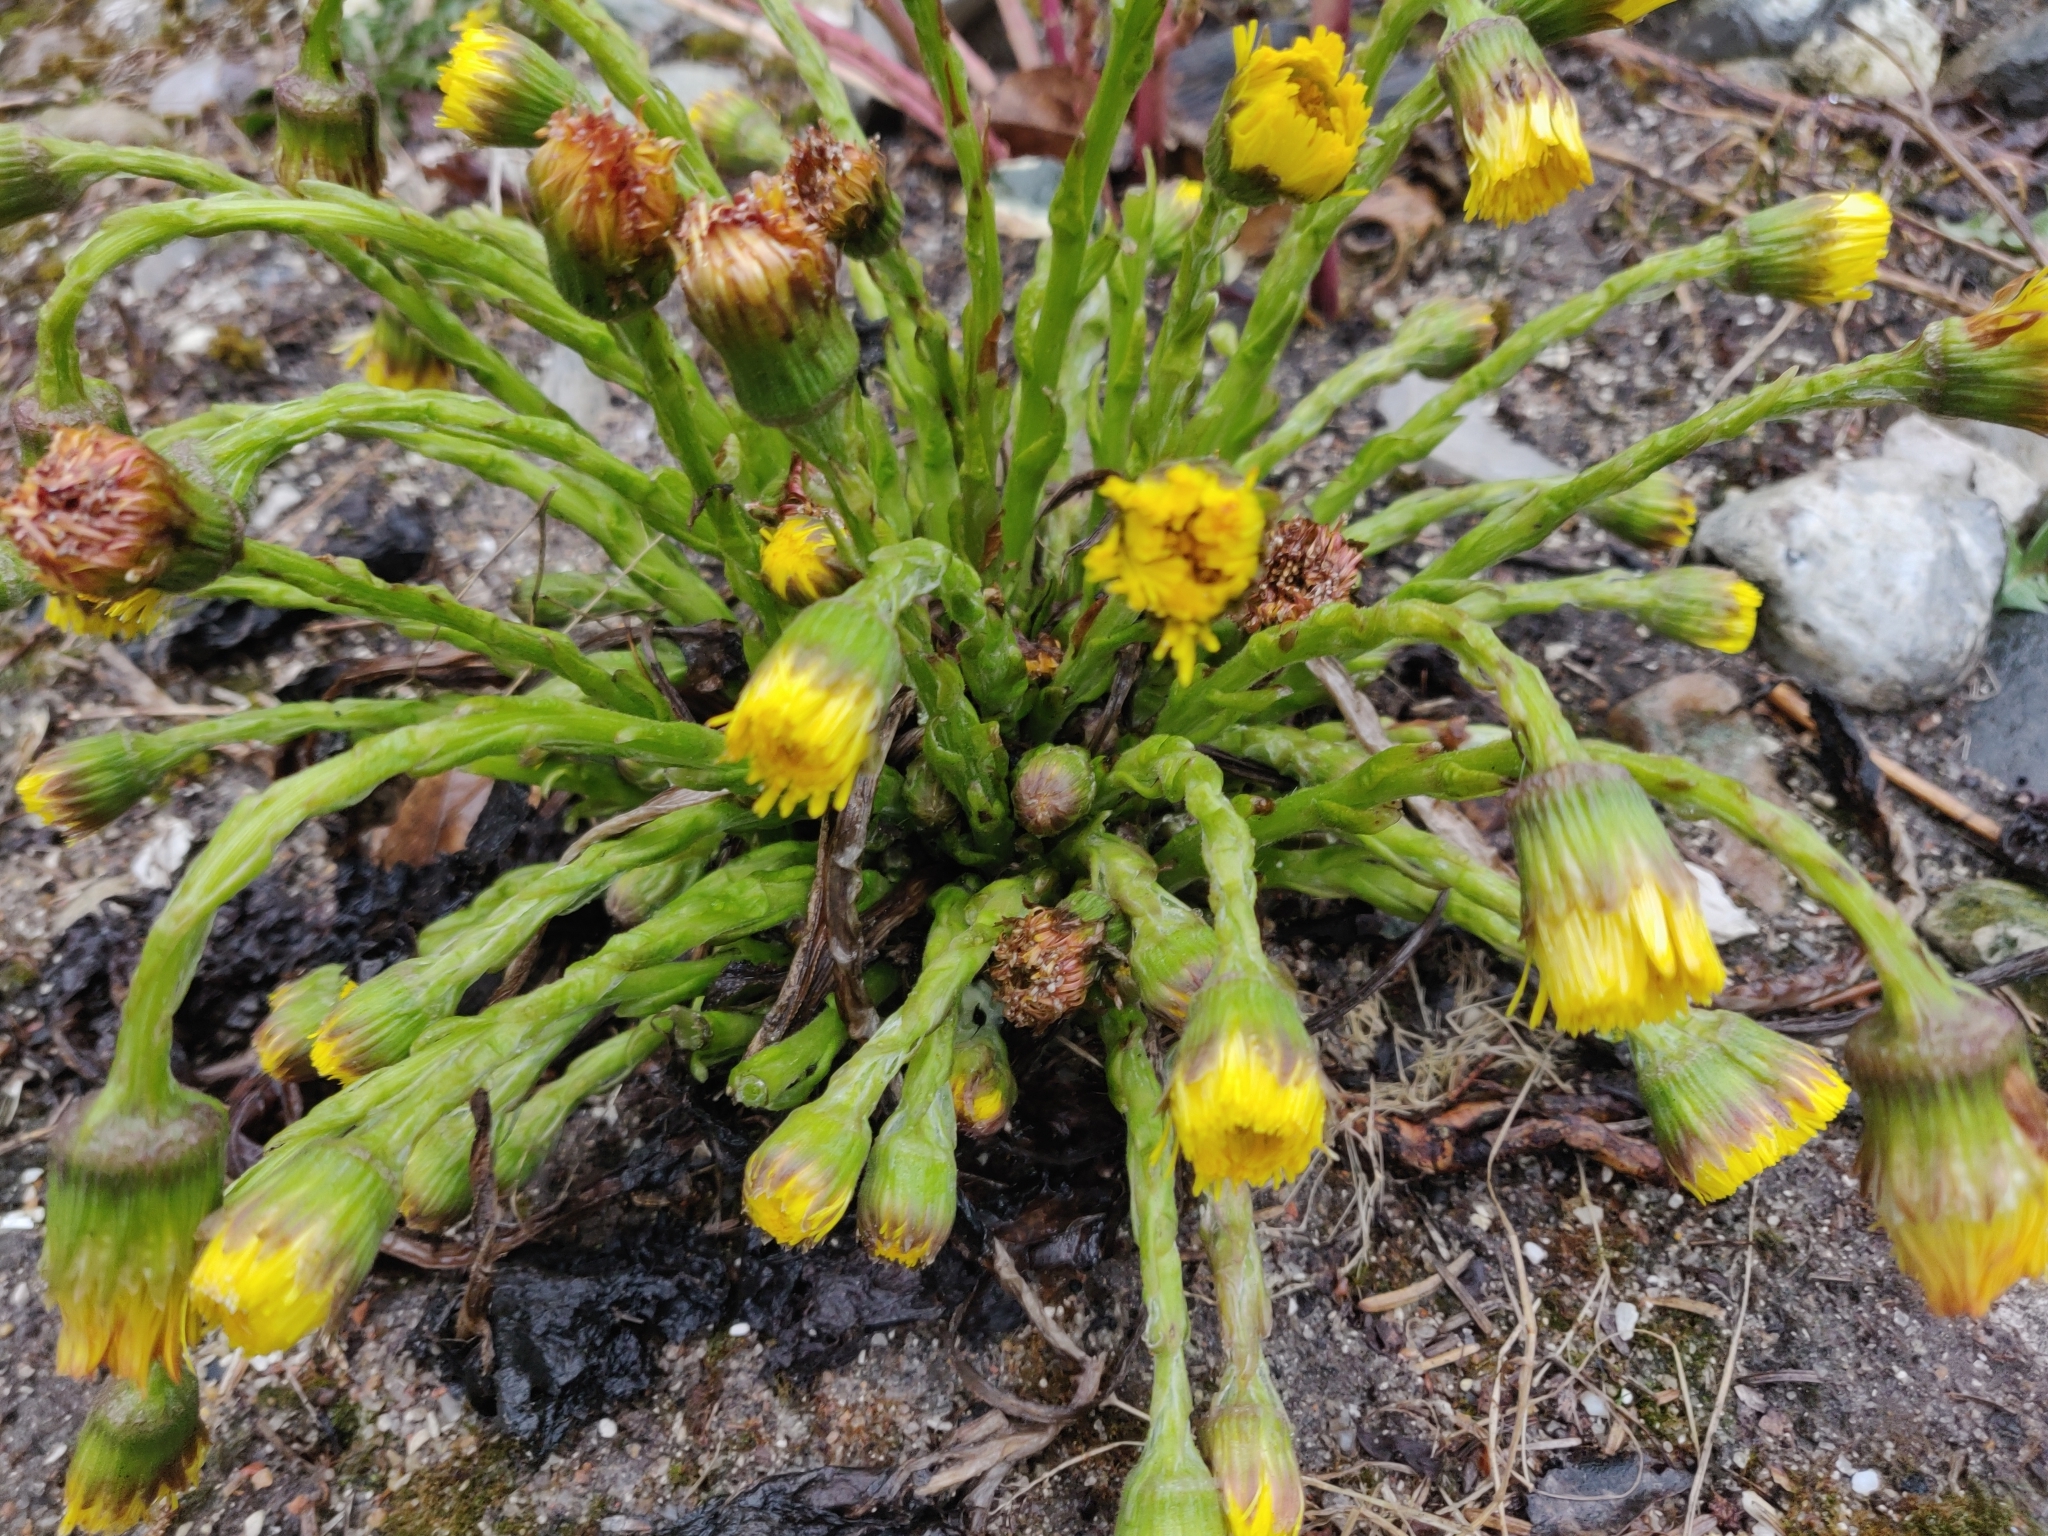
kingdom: Plantae
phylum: Tracheophyta
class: Magnoliopsida
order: Asterales
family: Asteraceae
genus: Tussilago
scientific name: Tussilago farfara
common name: Coltsfoot
